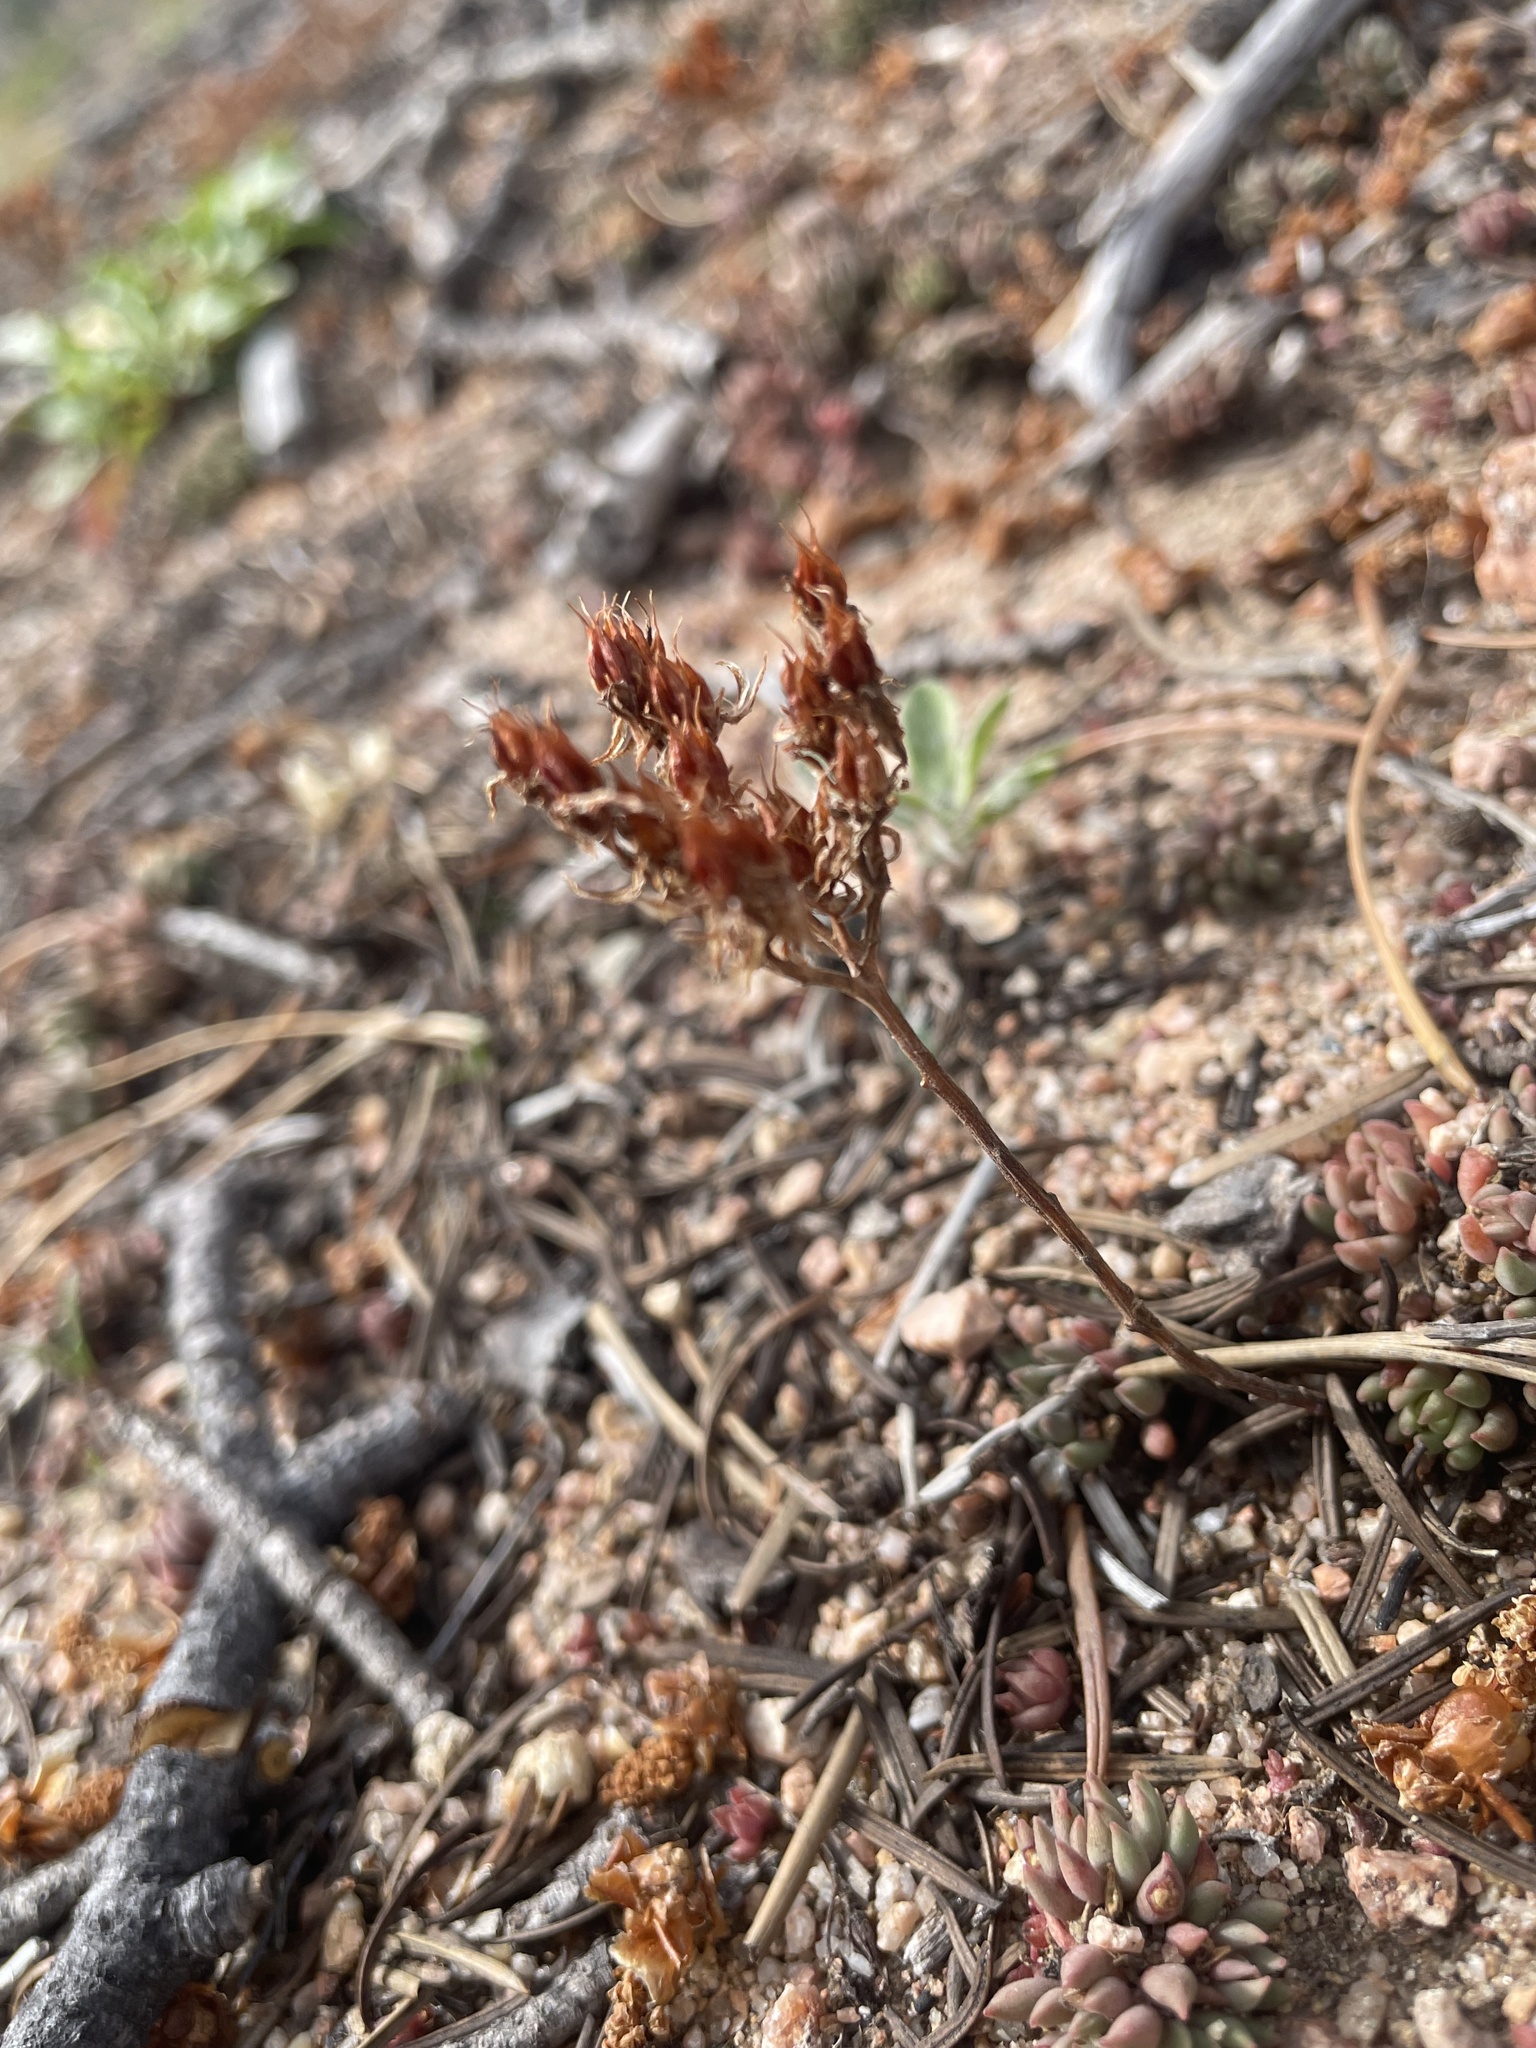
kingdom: Plantae
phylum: Tracheophyta
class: Magnoliopsida
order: Saxifragales
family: Crassulaceae
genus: Sedum
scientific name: Sedum lanceolatum
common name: Common stonecrop
